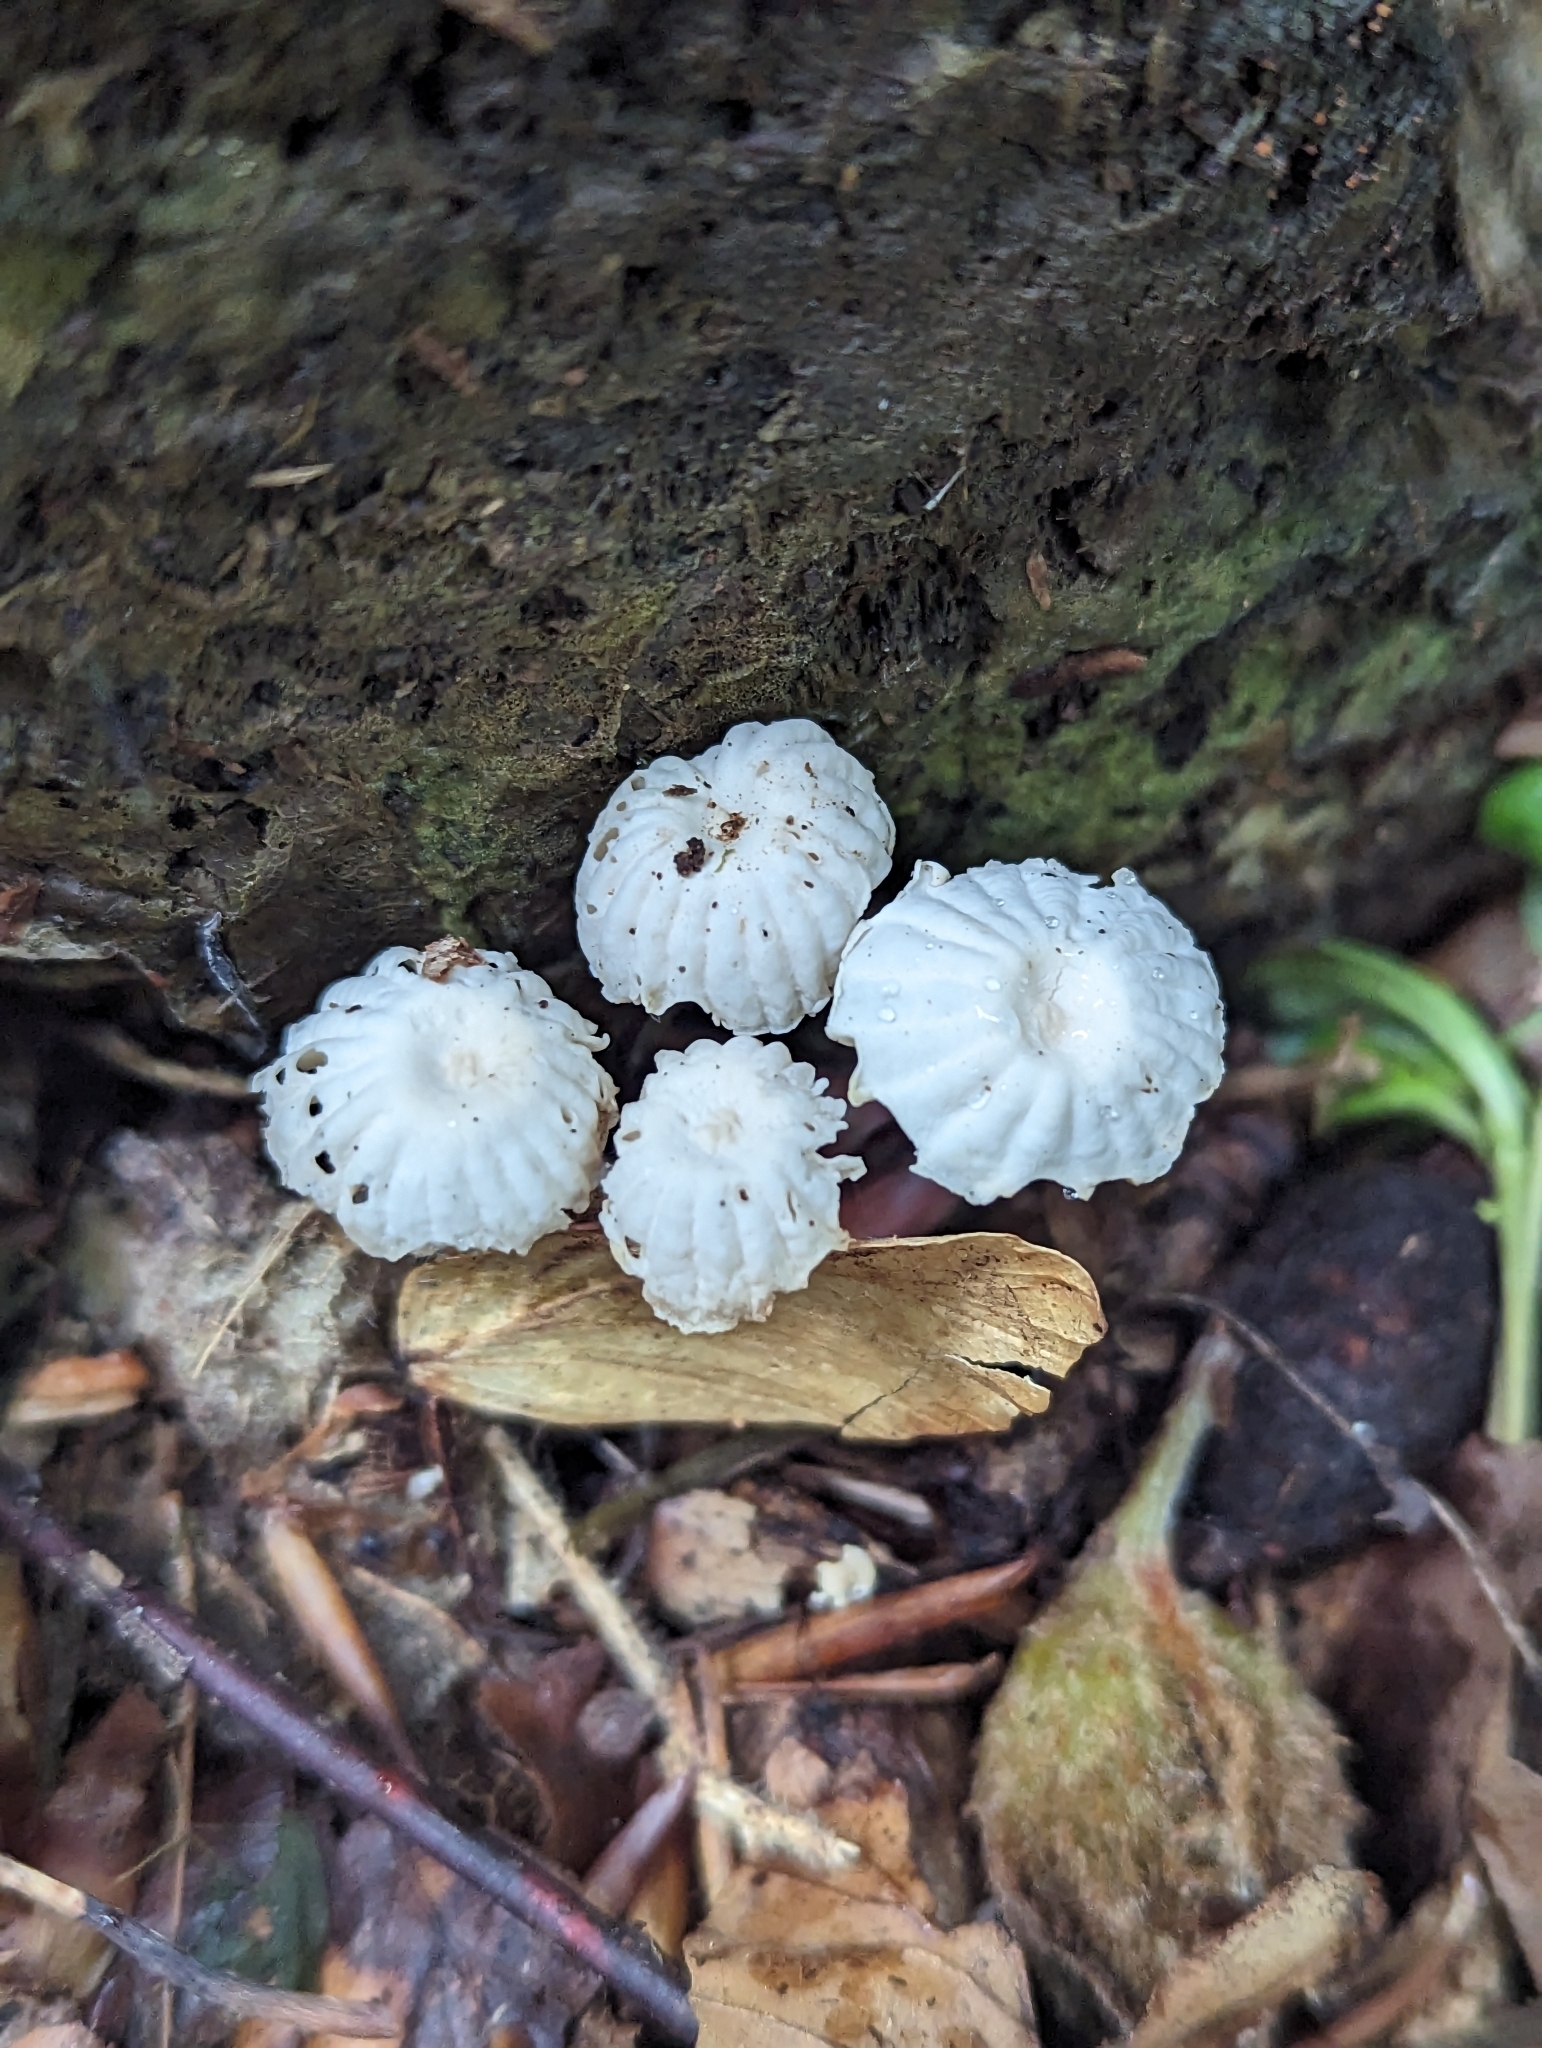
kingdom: Fungi
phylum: Basidiomycota
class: Agaricomycetes
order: Agaricales
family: Marasmiaceae
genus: Marasmius
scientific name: Marasmius rotula
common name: Collared parachute
